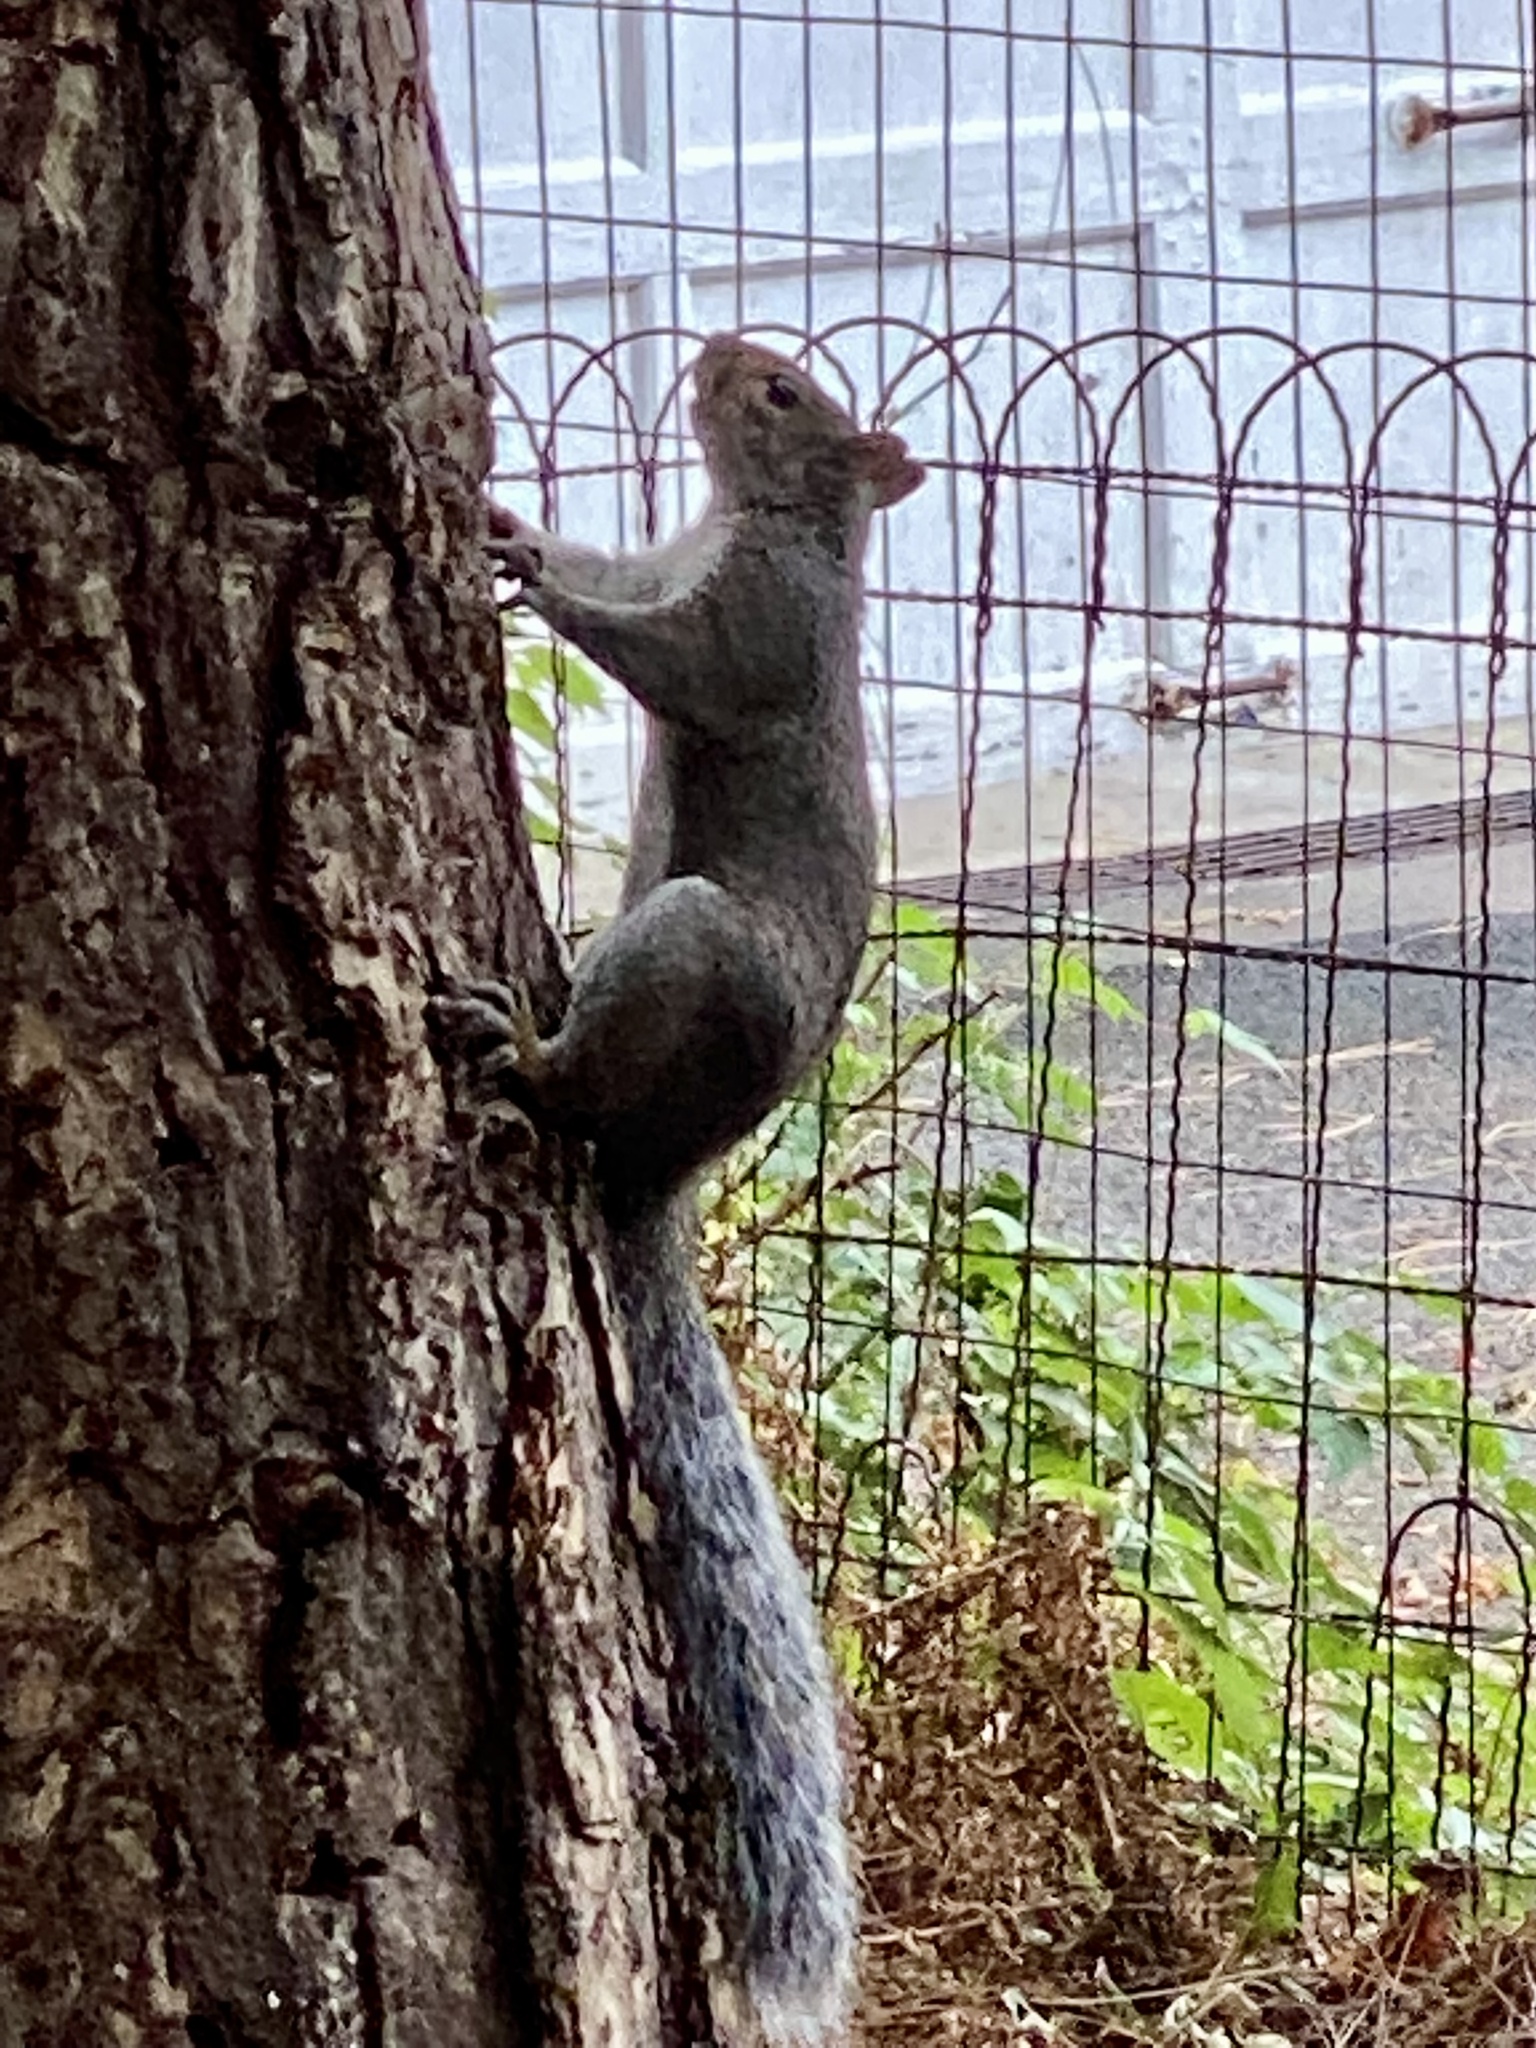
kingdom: Animalia
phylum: Chordata
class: Mammalia
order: Rodentia
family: Sciuridae
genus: Sciurus
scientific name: Sciurus carolinensis
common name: Eastern gray squirrel
